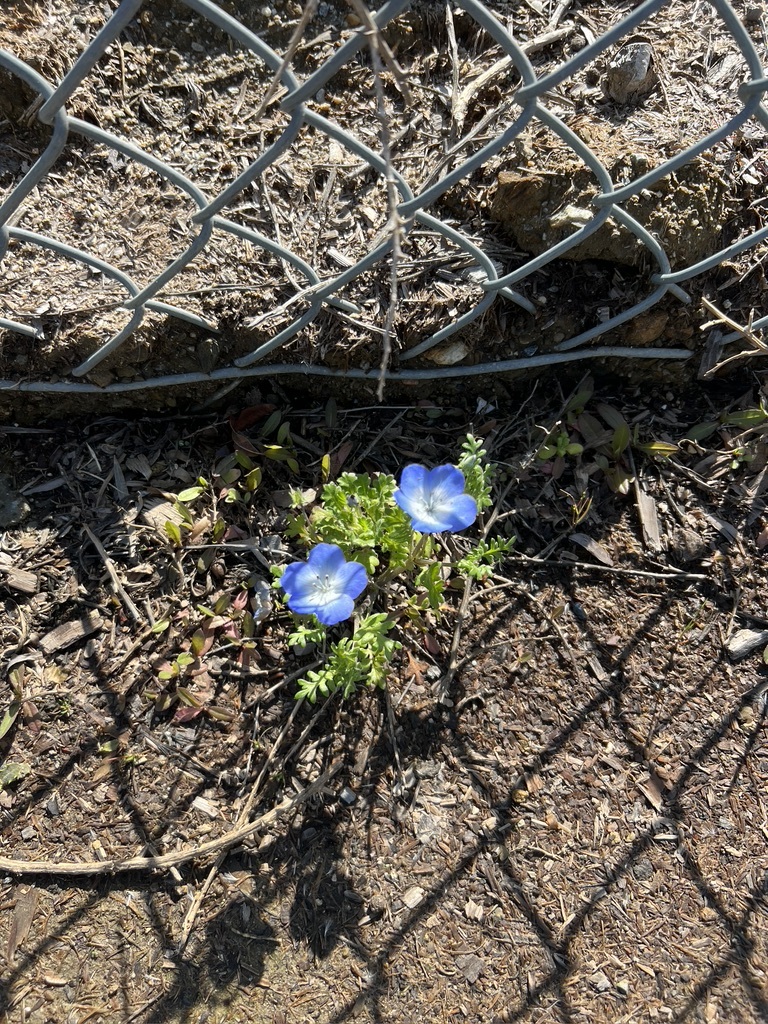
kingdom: Plantae
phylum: Tracheophyta
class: Magnoliopsida
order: Boraginales
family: Hydrophyllaceae
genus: Nemophila
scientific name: Nemophila menziesii
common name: Baby's-blue-eyes
